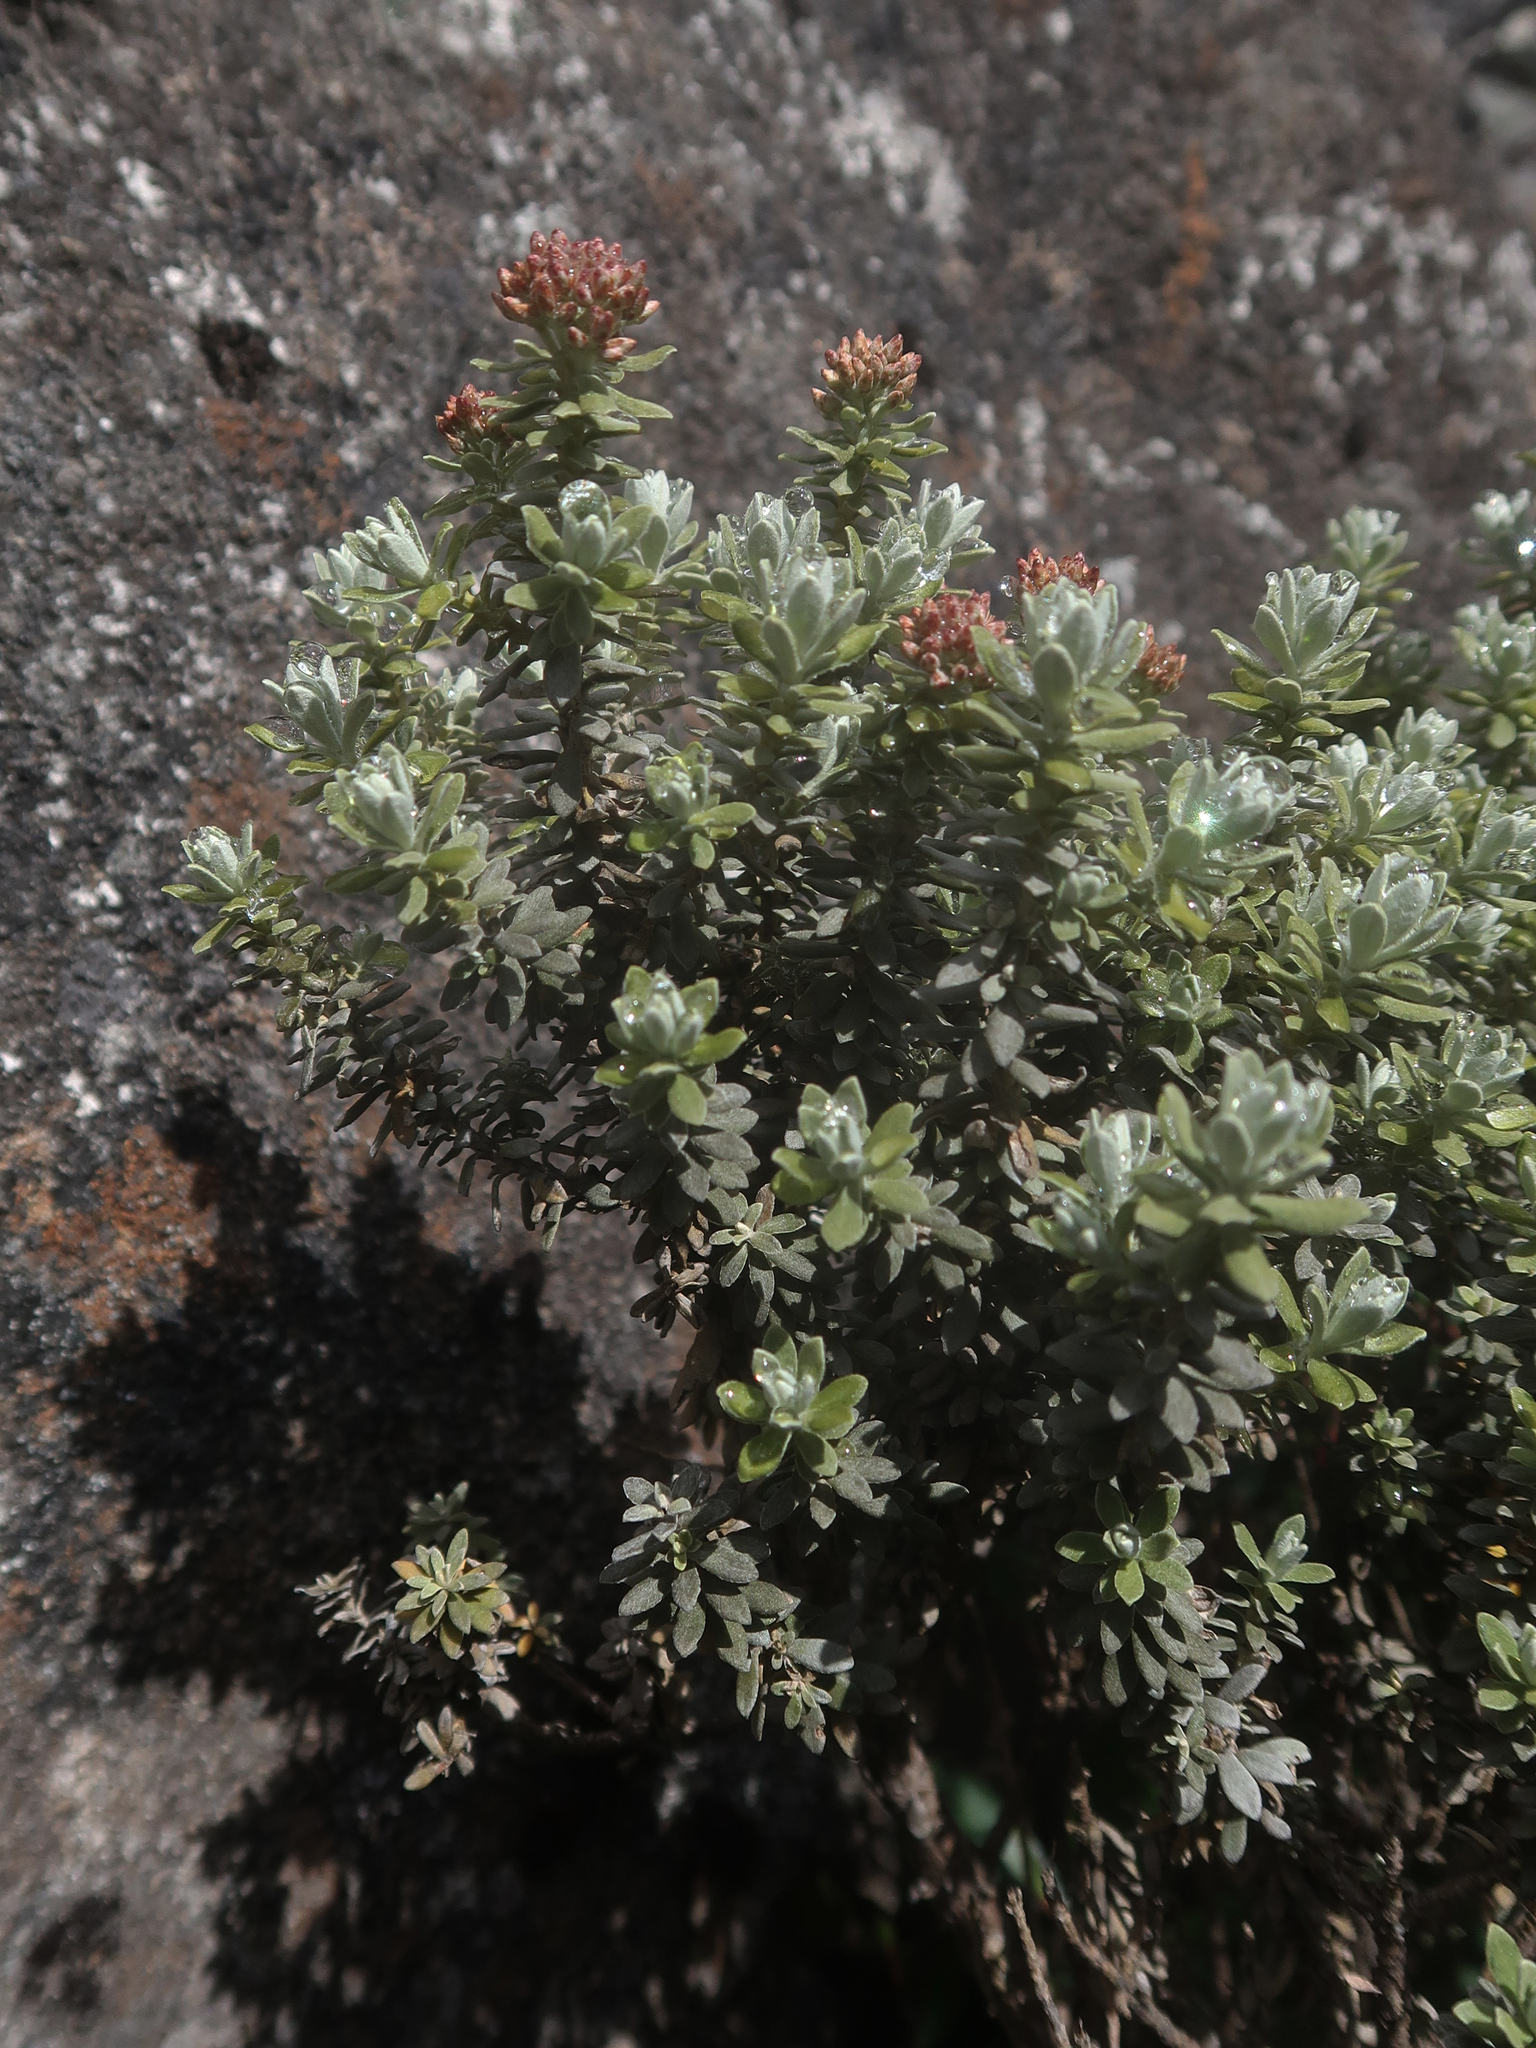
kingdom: Plantae
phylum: Tracheophyta
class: Magnoliopsida
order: Asterales
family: Asteraceae
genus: Ozothamnus
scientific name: Ozothamnus rodwayi
